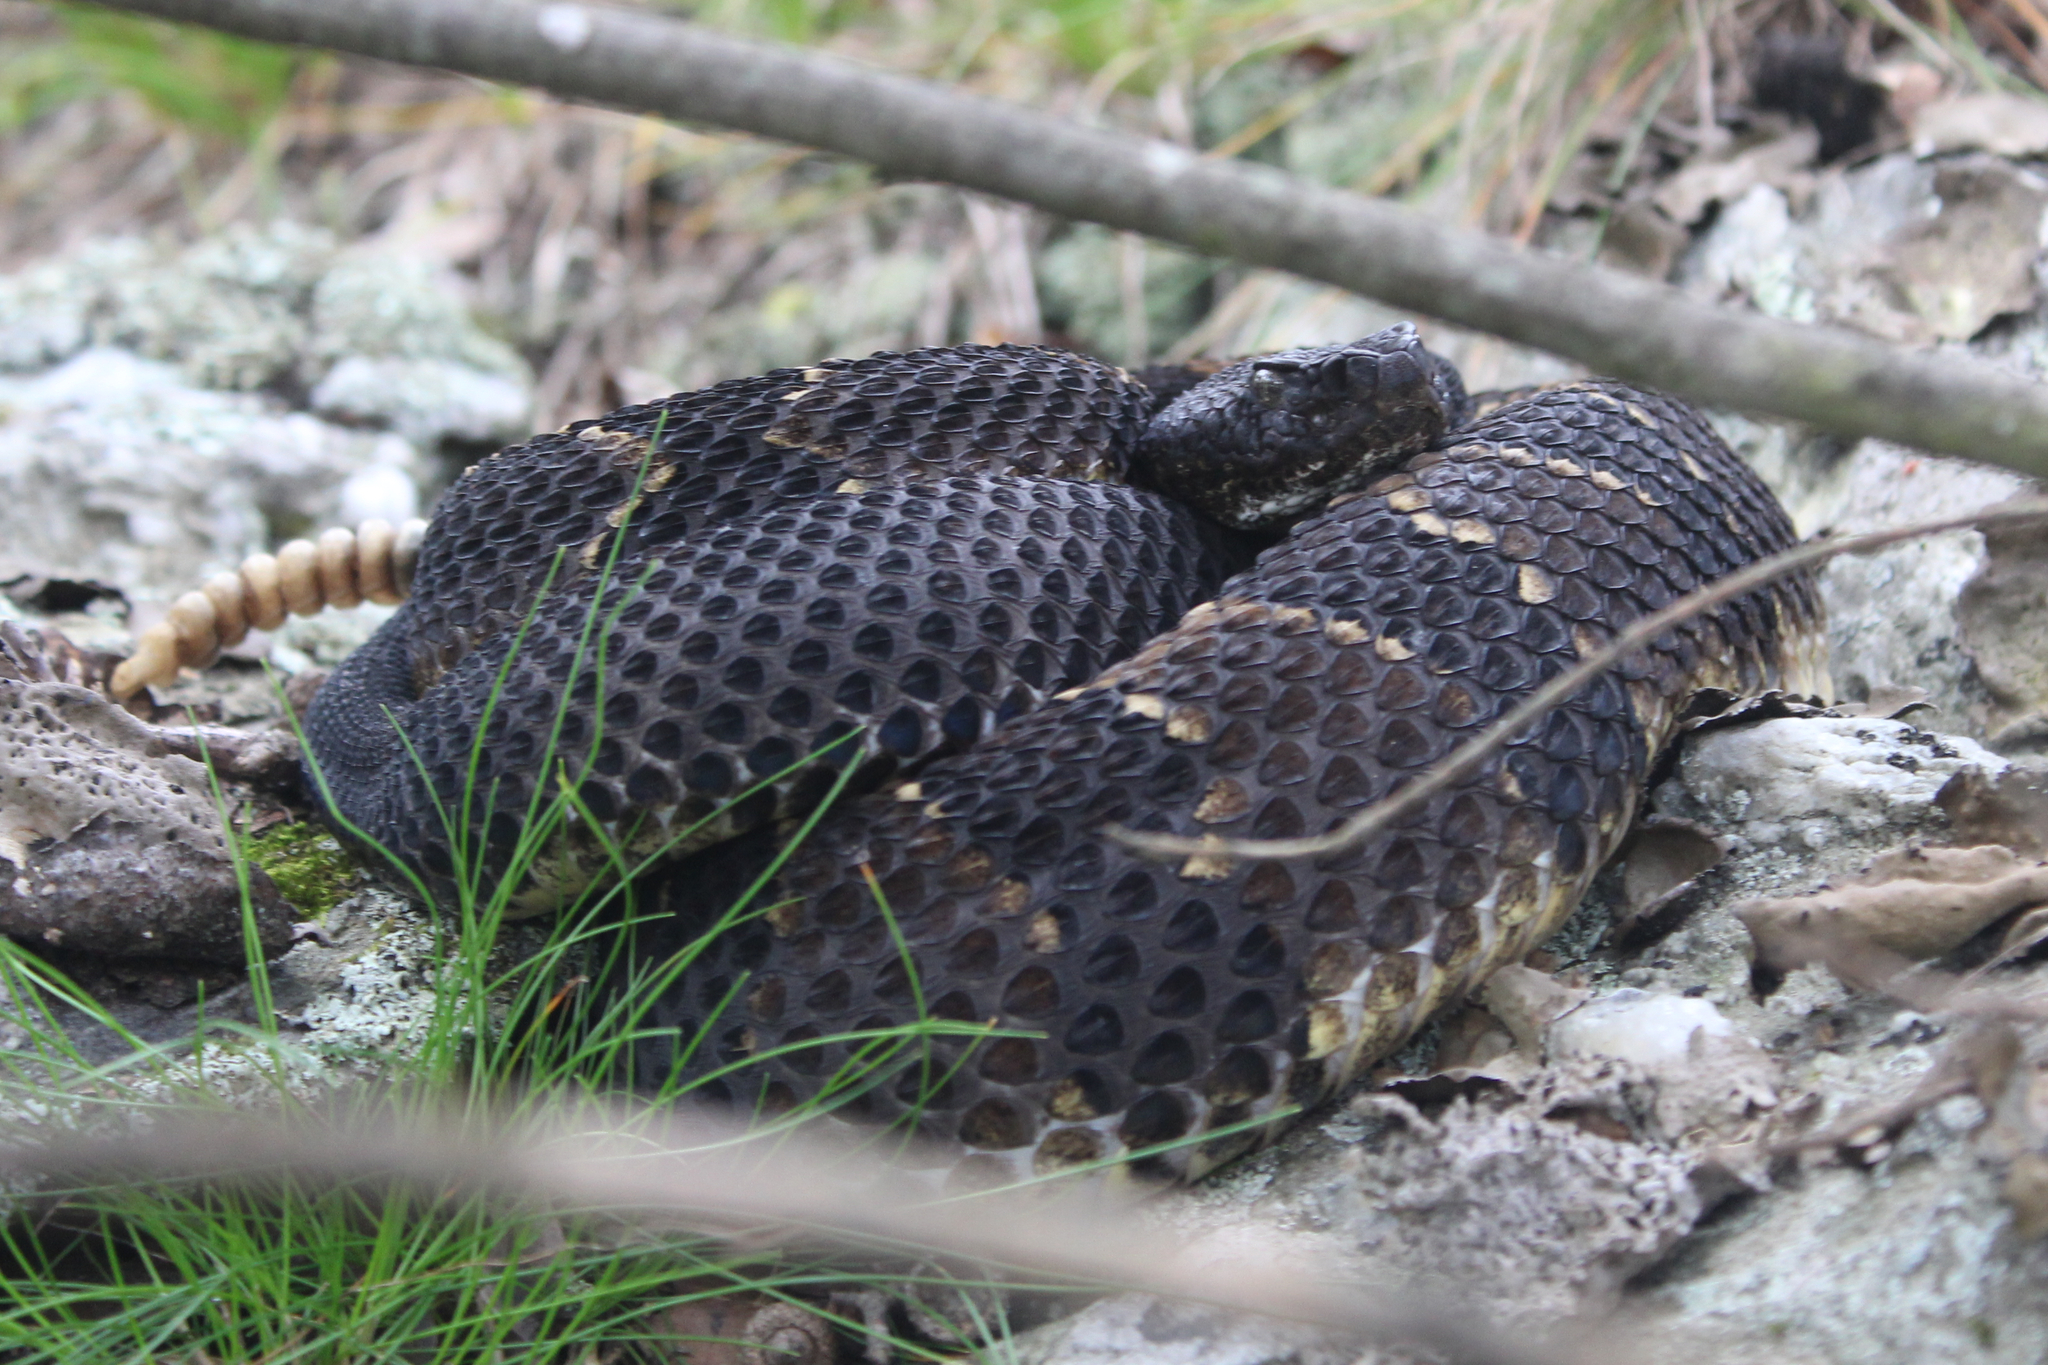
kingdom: Animalia
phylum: Chordata
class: Squamata
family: Viperidae
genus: Crotalus
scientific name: Crotalus horridus
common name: Timber rattlesnake
